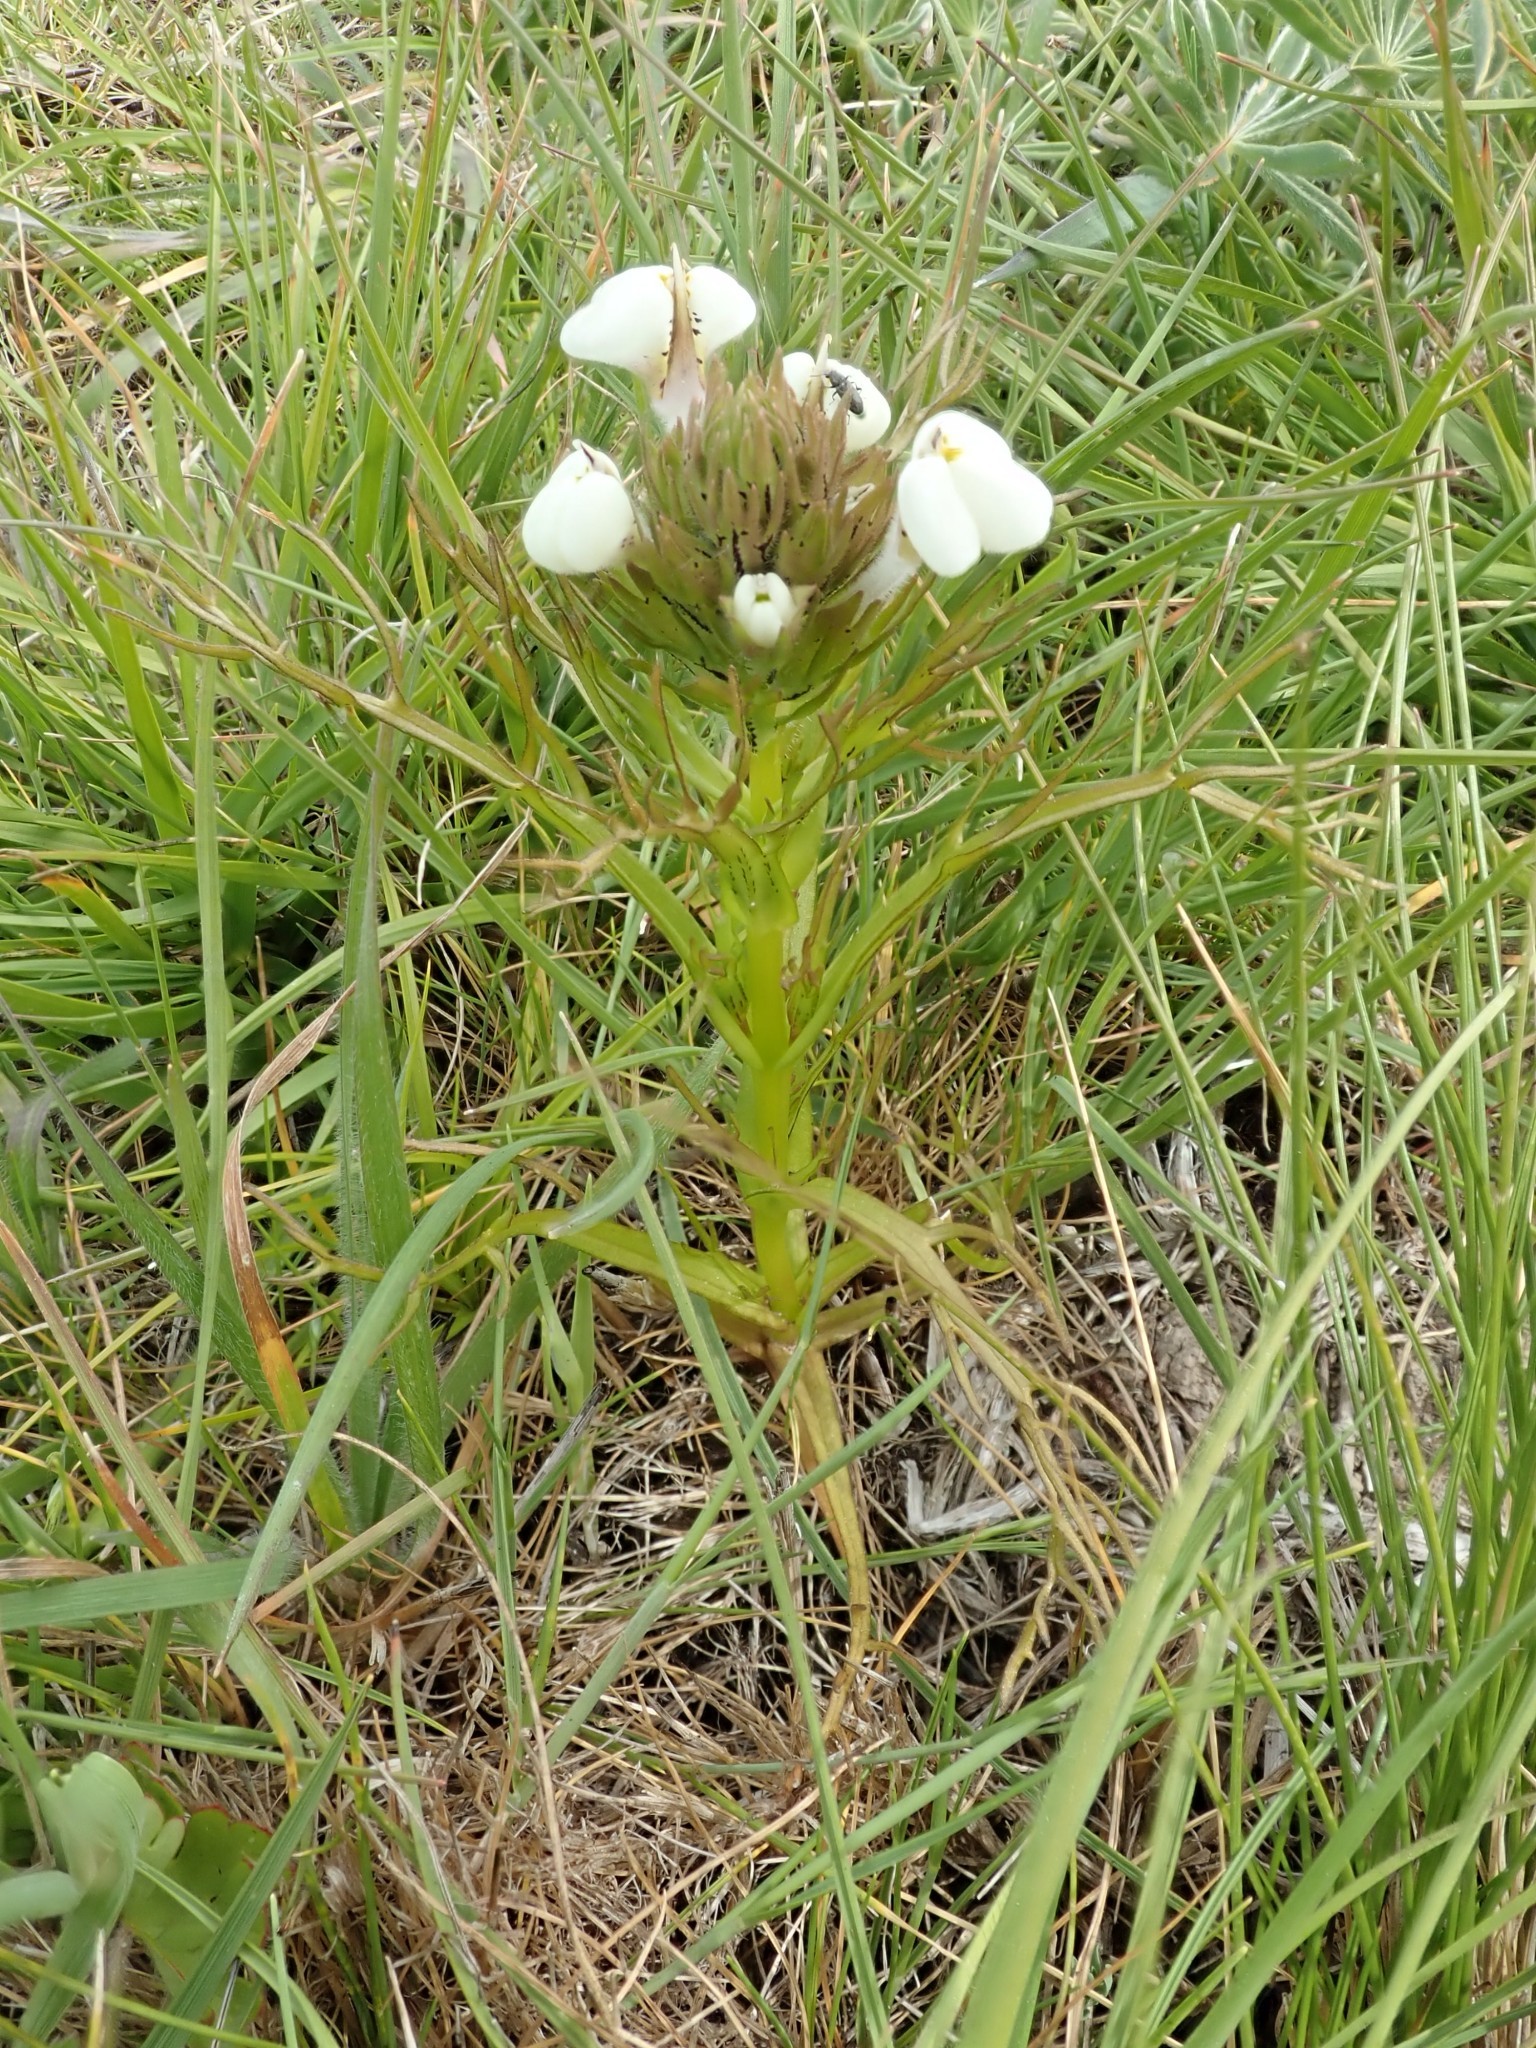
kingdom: Plantae
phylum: Tracheophyta
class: Magnoliopsida
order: Lamiales
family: Orobanchaceae
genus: Triphysaria
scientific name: Triphysaria versicolor
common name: Bearded false owl-clover
